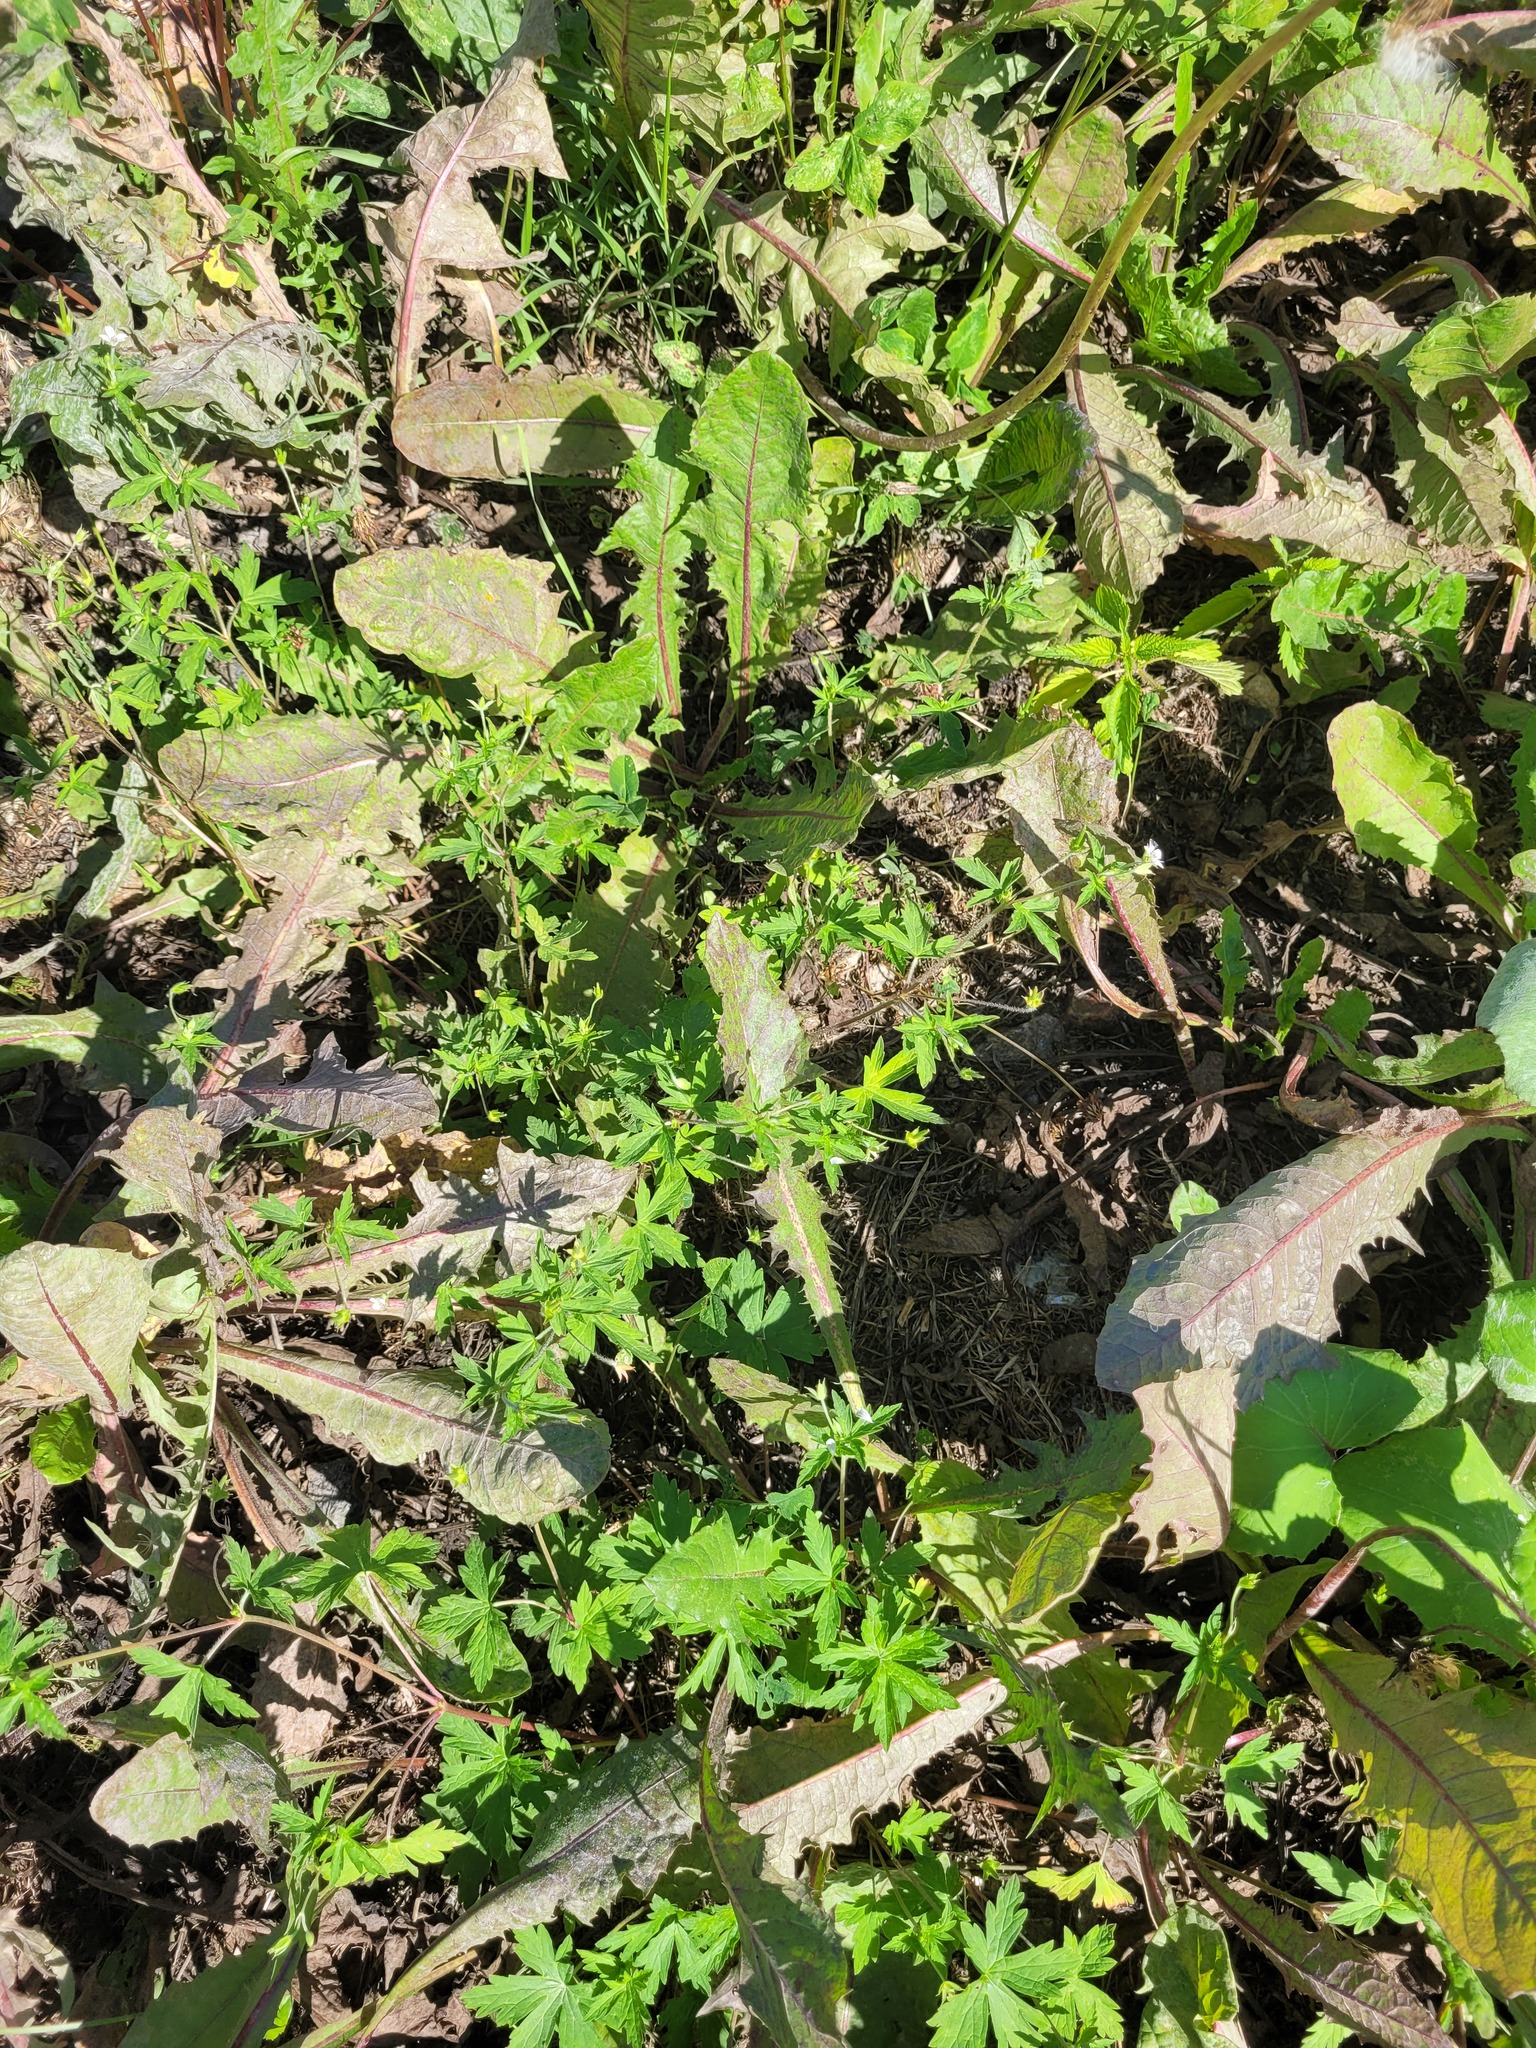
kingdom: Plantae
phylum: Tracheophyta
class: Magnoliopsida
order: Geraniales
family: Geraniaceae
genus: Geranium
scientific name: Geranium sibiricum
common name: Siberian crane's-bill
